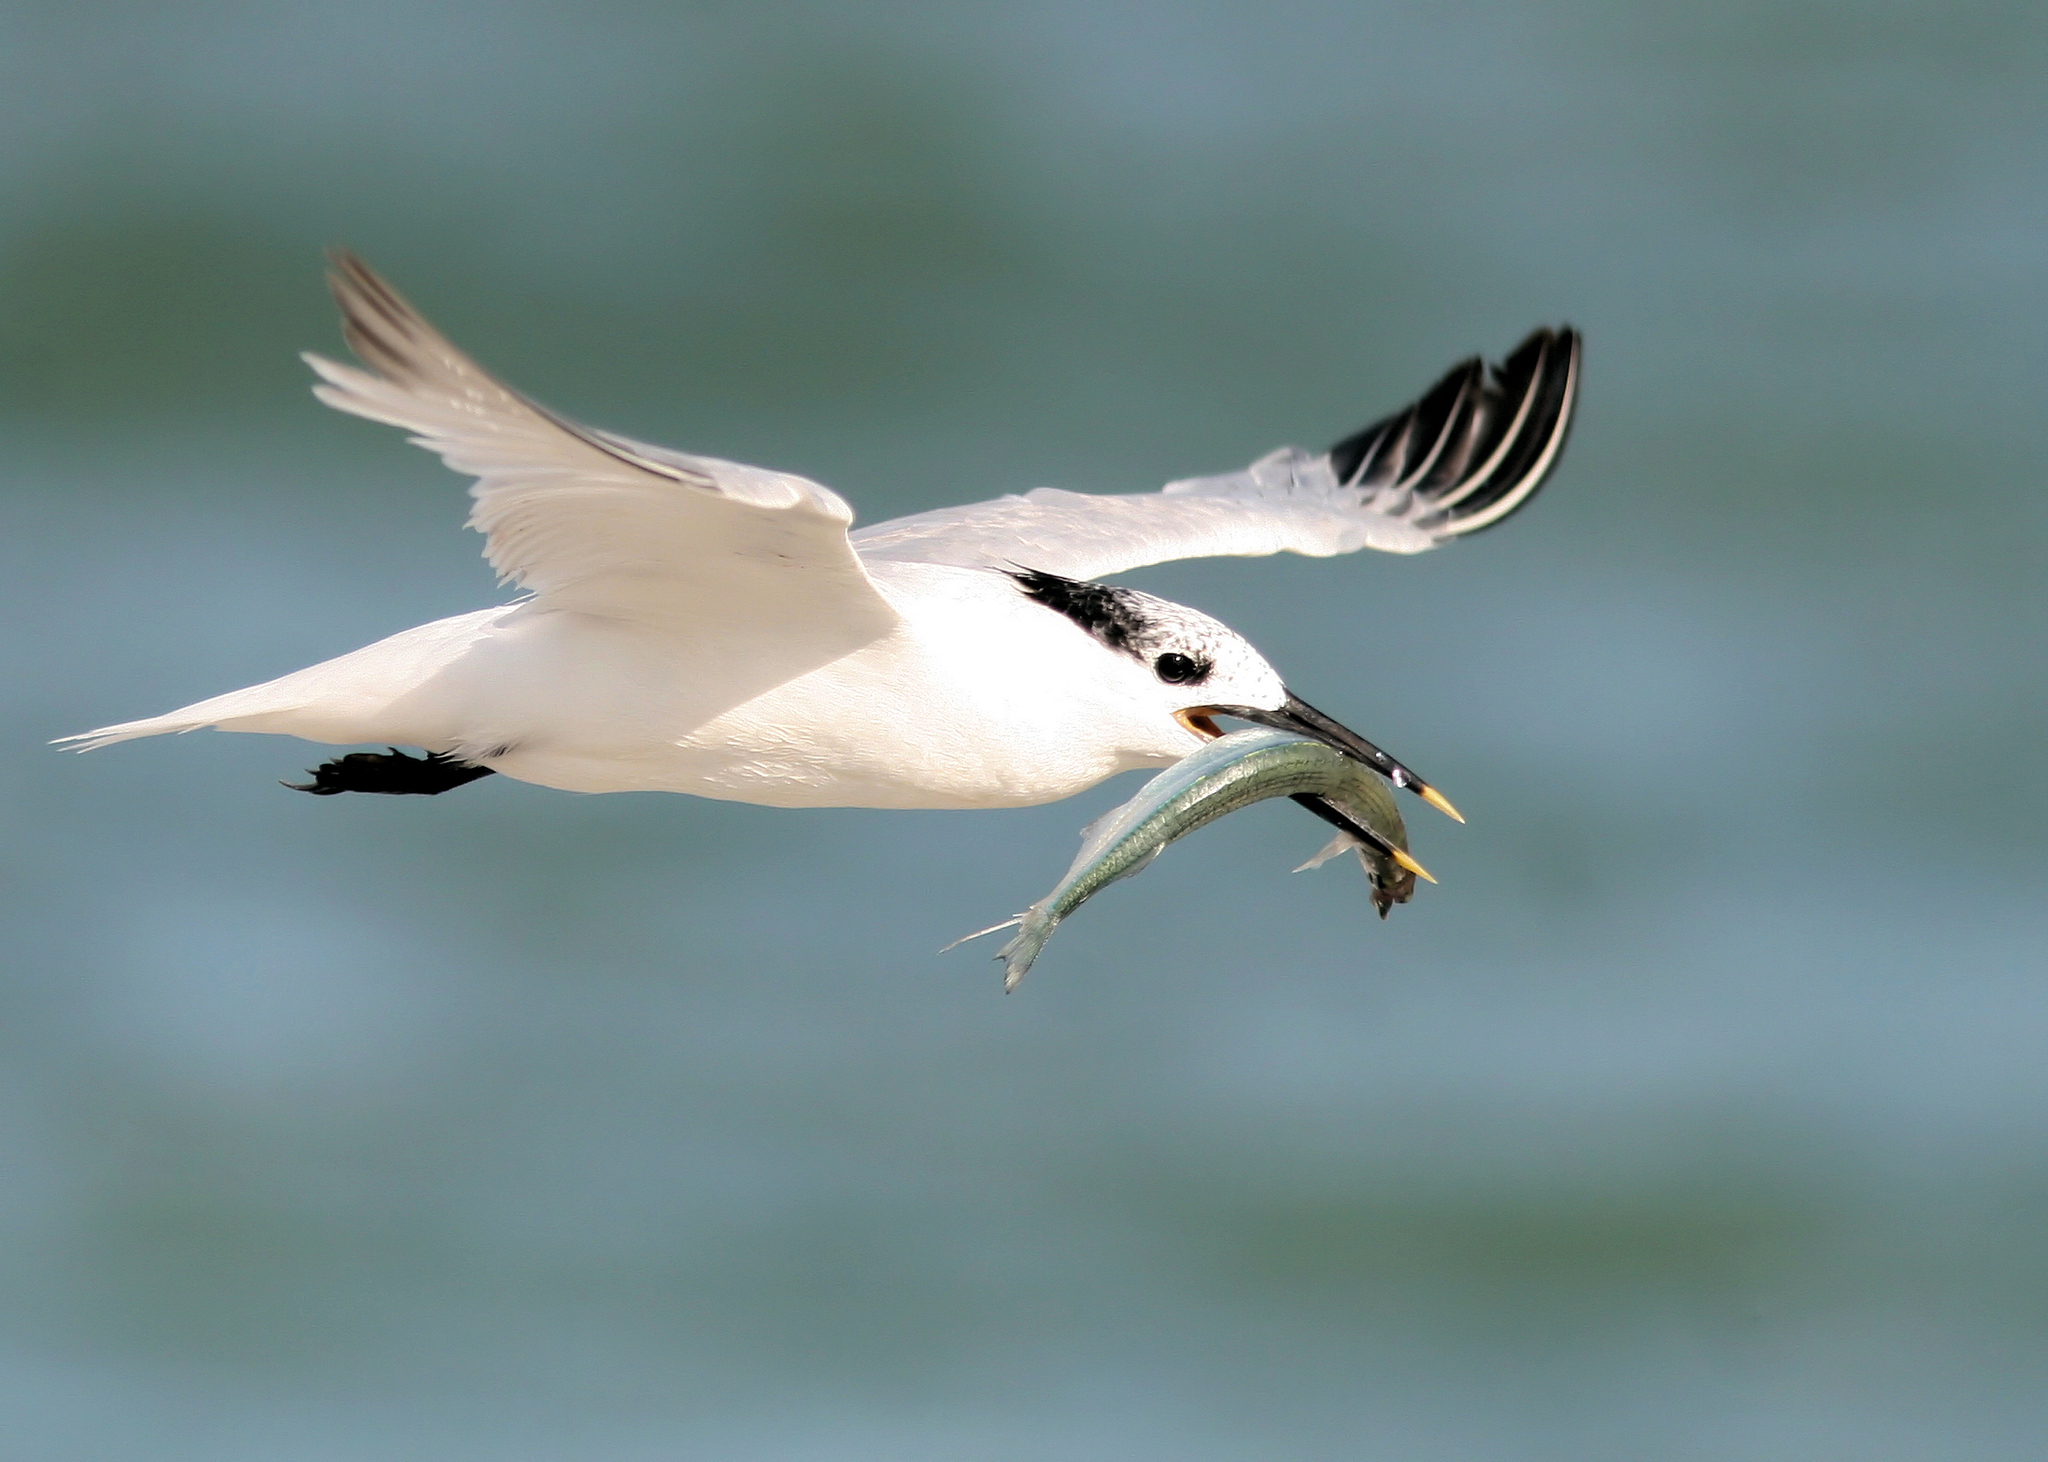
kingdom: Animalia
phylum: Chordata
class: Aves
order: Charadriiformes
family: Laridae
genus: Thalasseus
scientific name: Thalasseus sandvicensis
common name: Sandwich tern
